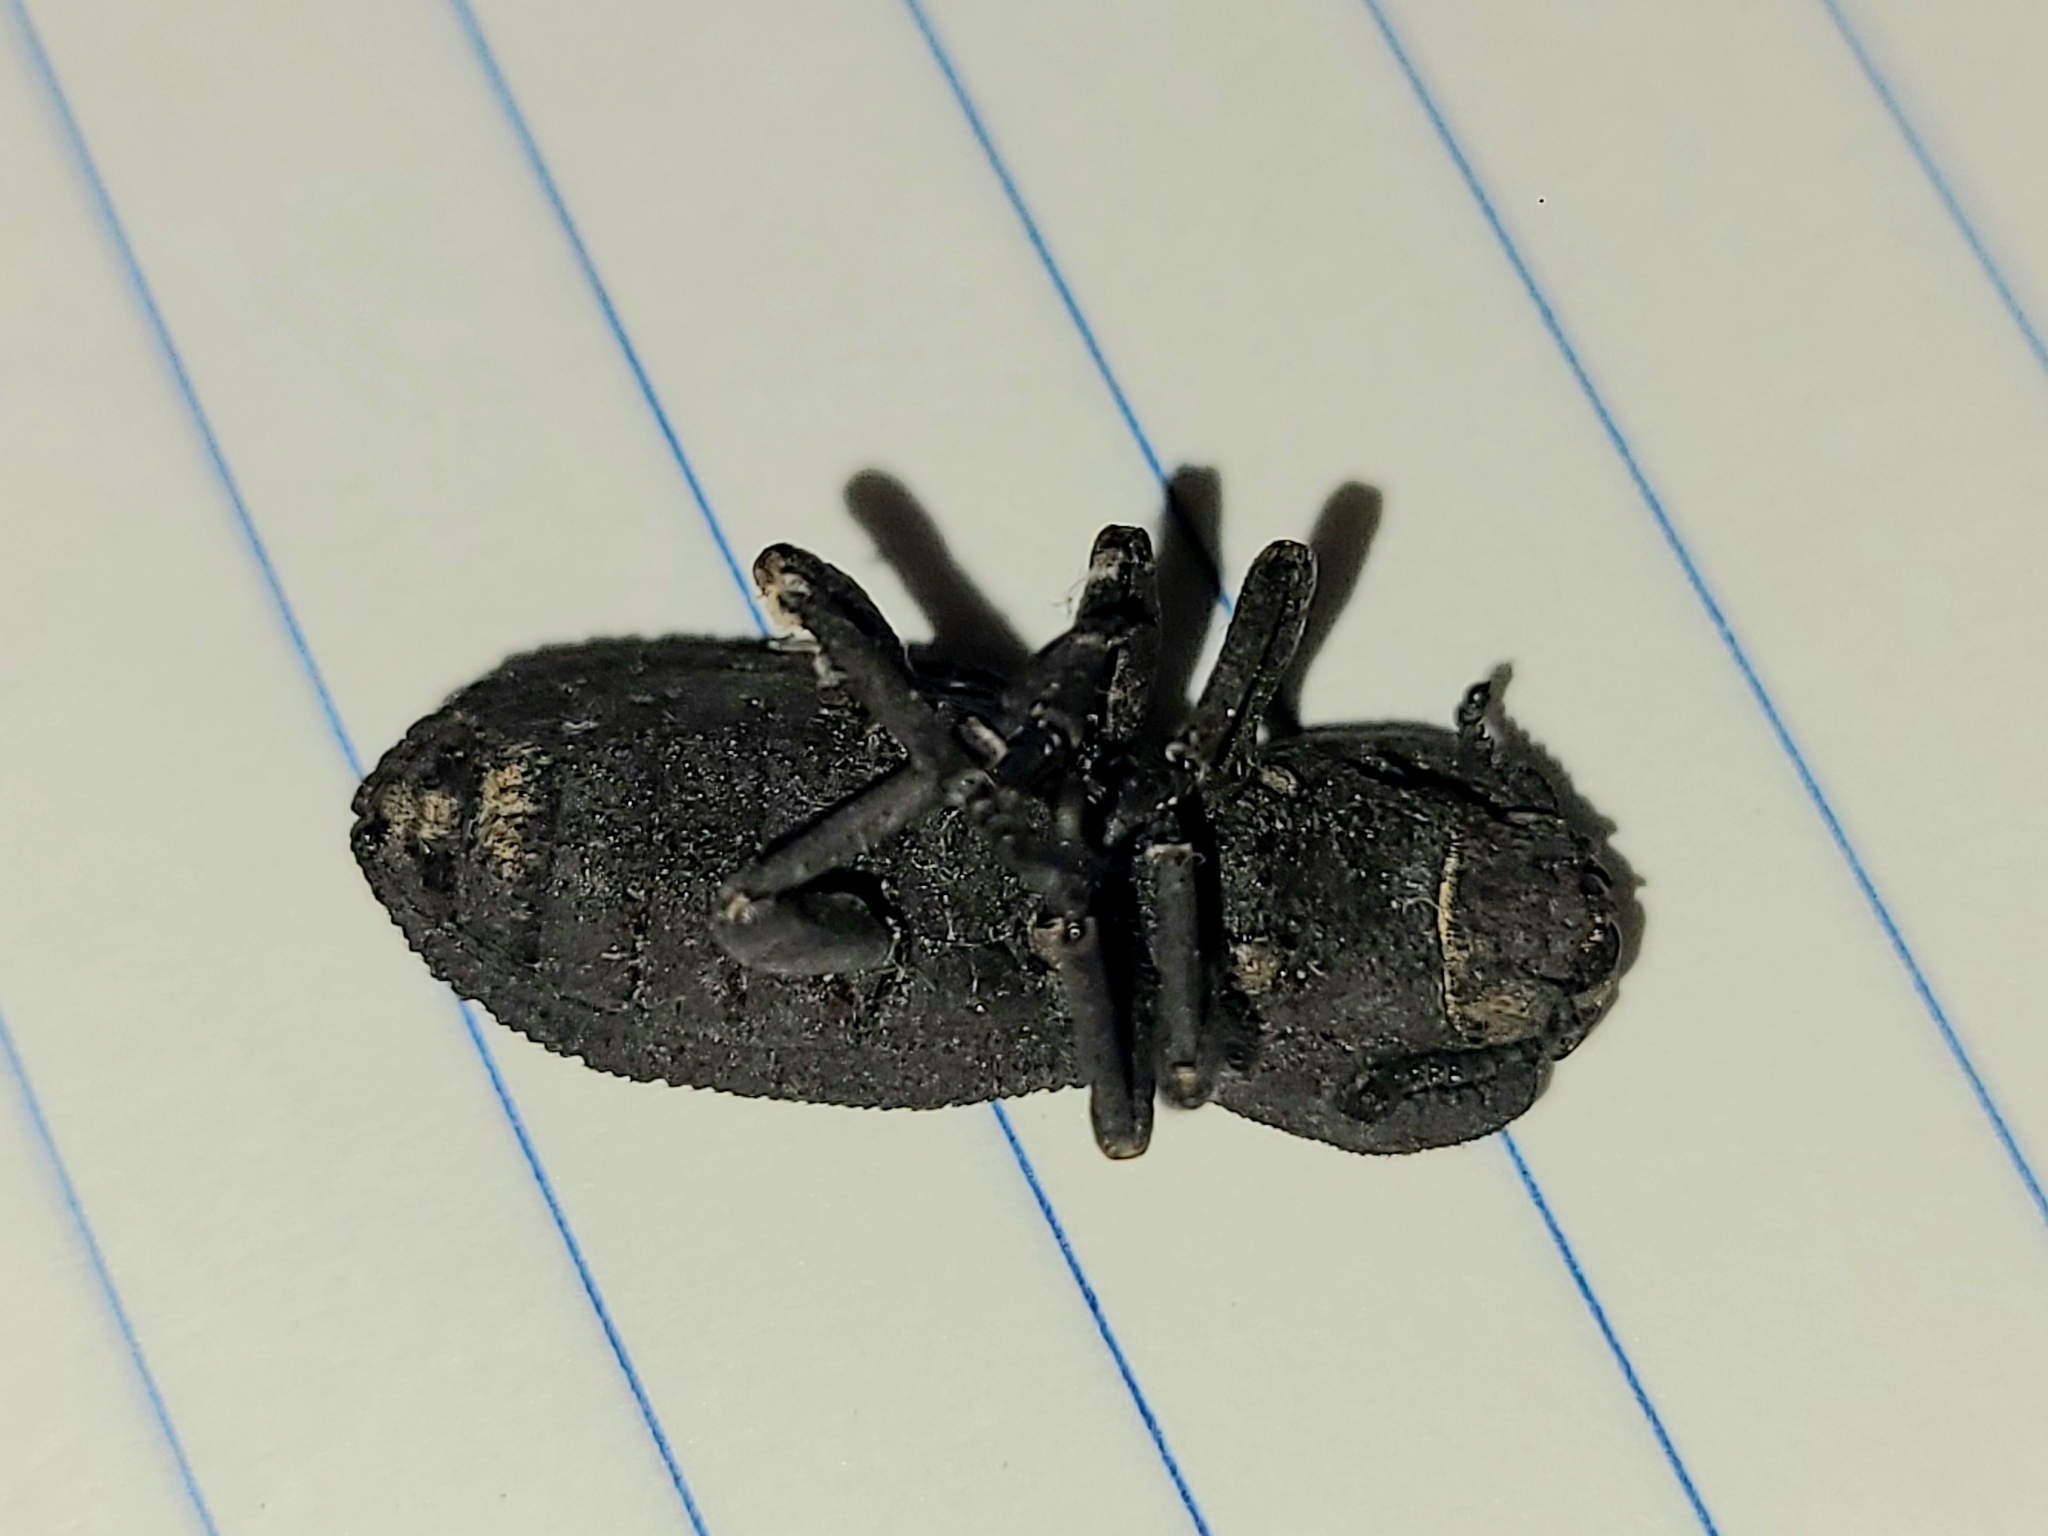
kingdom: Animalia
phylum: Arthropoda
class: Insecta
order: Coleoptera
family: Zopheridae
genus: Phloeodes
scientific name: Phloeodes diabolicus
